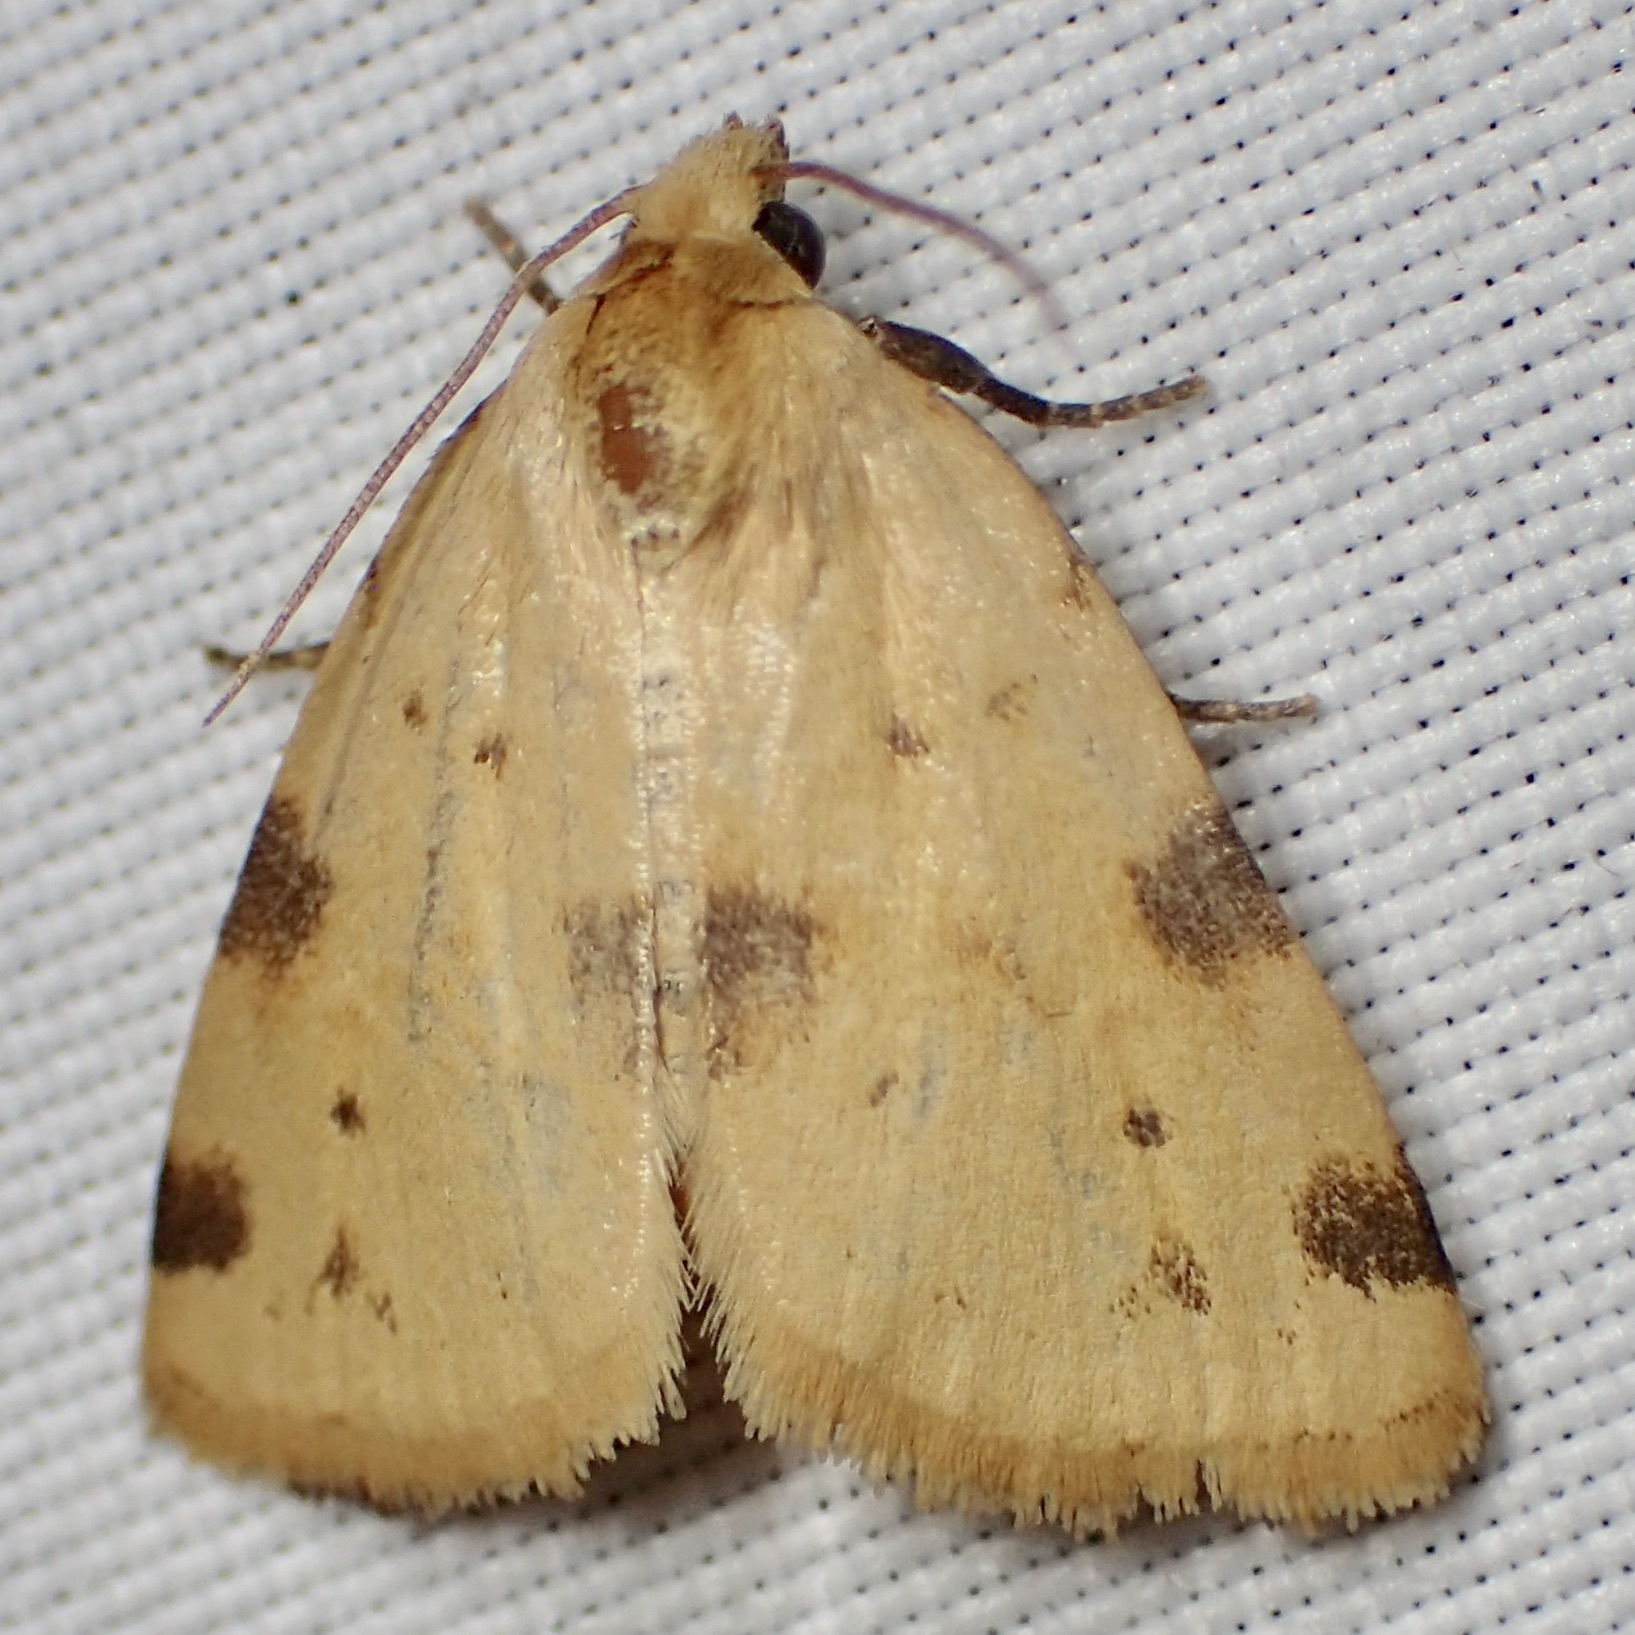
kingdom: Animalia
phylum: Arthropoda
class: Insecta
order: Lepidoptera
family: Noctuidae
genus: Azenia
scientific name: Azenia edentata
